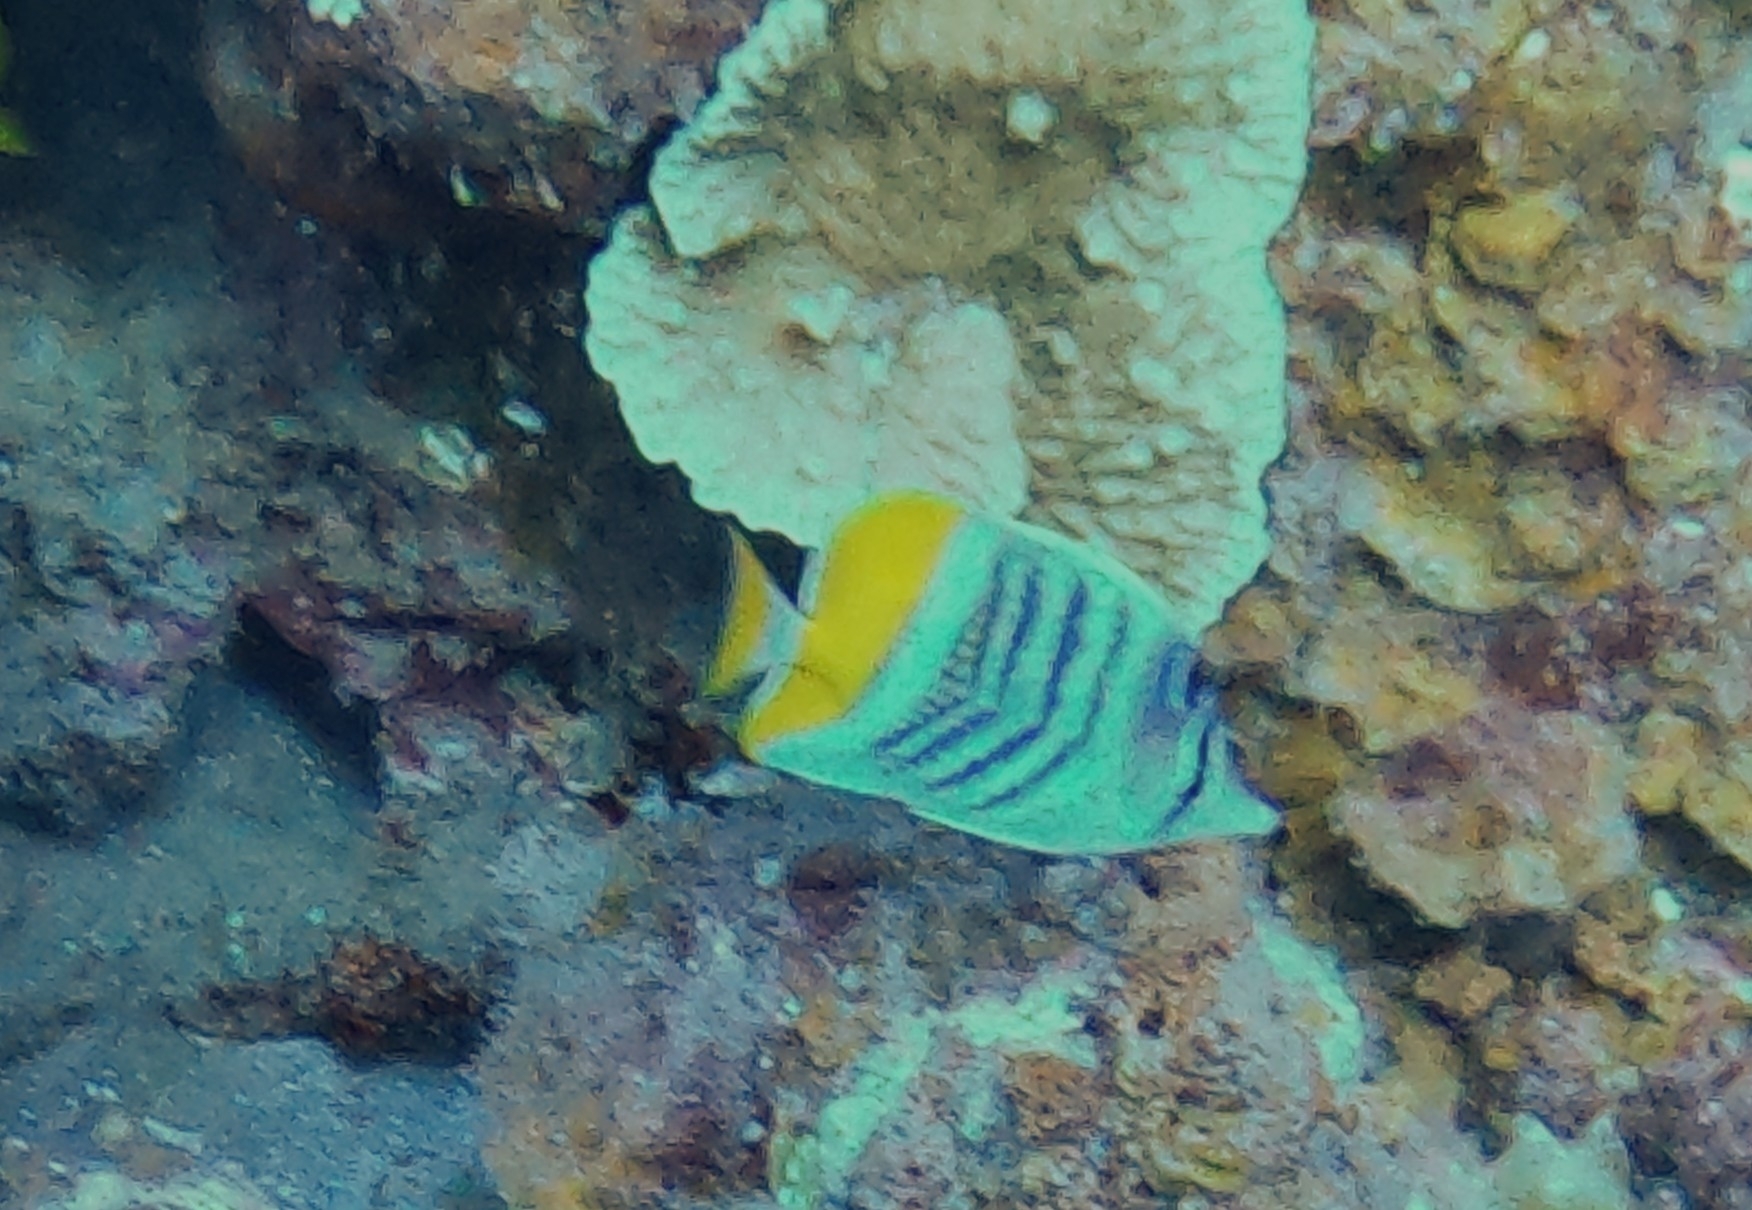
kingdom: Animalia
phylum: Chordata
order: Perciformes
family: Chaetodontidae
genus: Chaetodon
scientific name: Chaetodon mertensii
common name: Merten's butterflyfish
